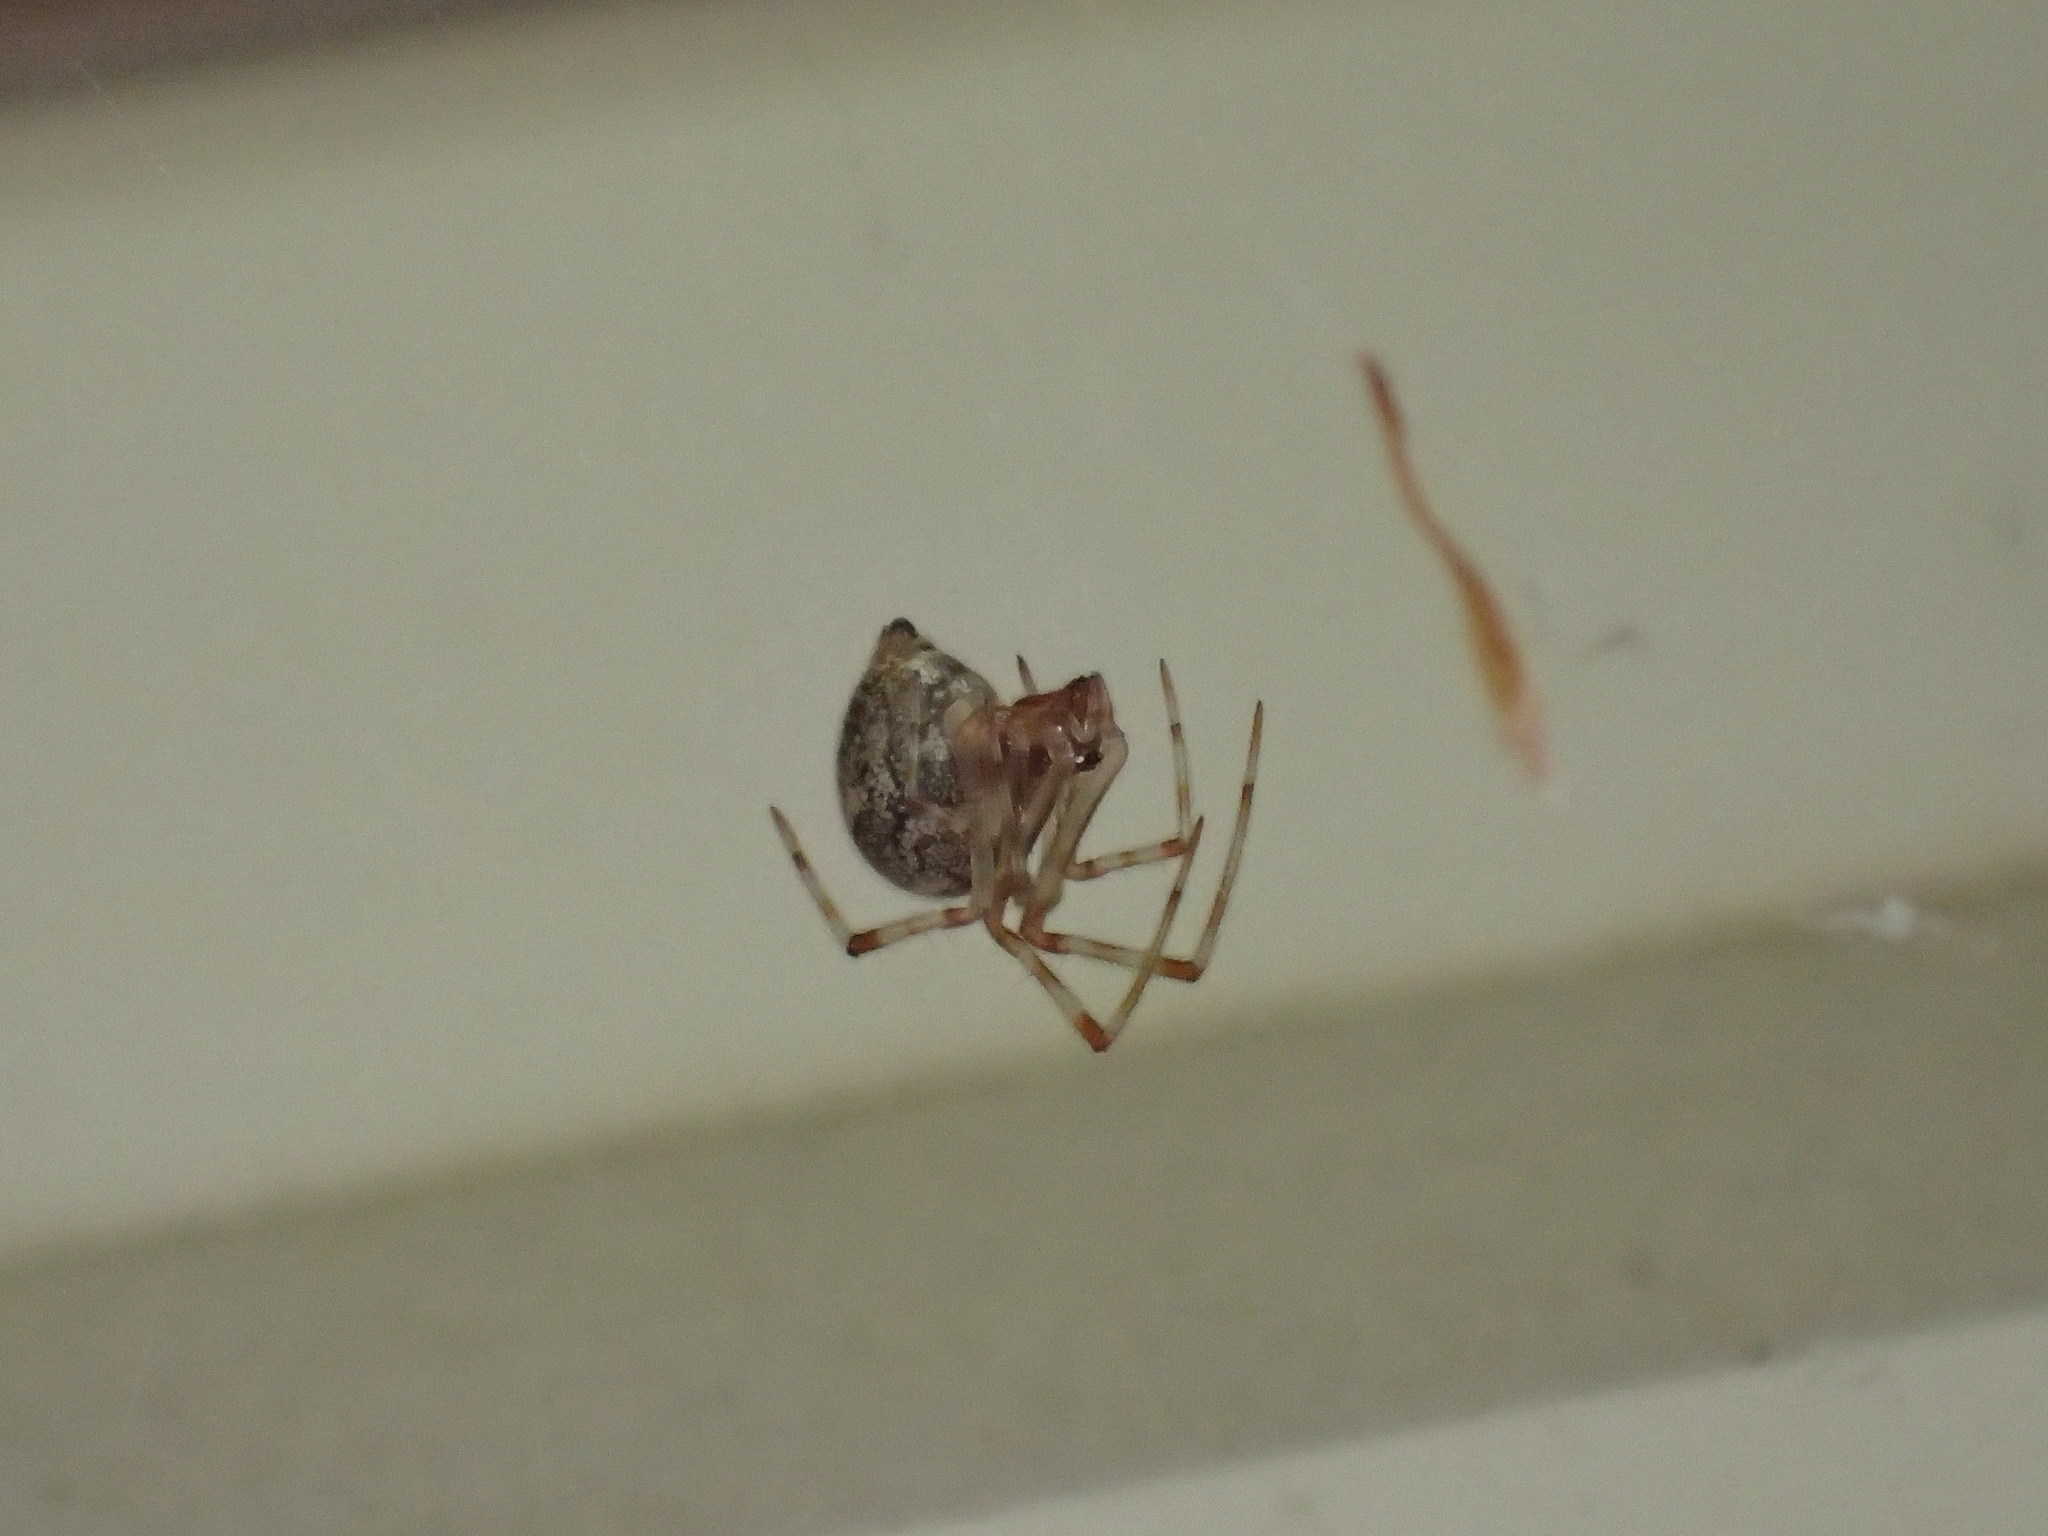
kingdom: Animalia
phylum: Arthropoda
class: Arachnida
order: Araneae
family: Theridiidae
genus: Parasteatoda
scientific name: Parasteatoda tepidariorum
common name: Common house spider
